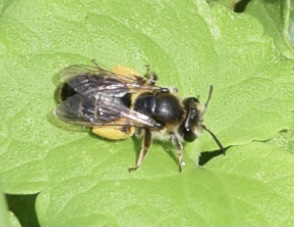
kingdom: Animalia
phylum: Arthropoda
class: Insecta
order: Hymenoptera
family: Andrenidae
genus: Andrena
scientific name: Andrena wilkella
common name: Wilke's mining bee
